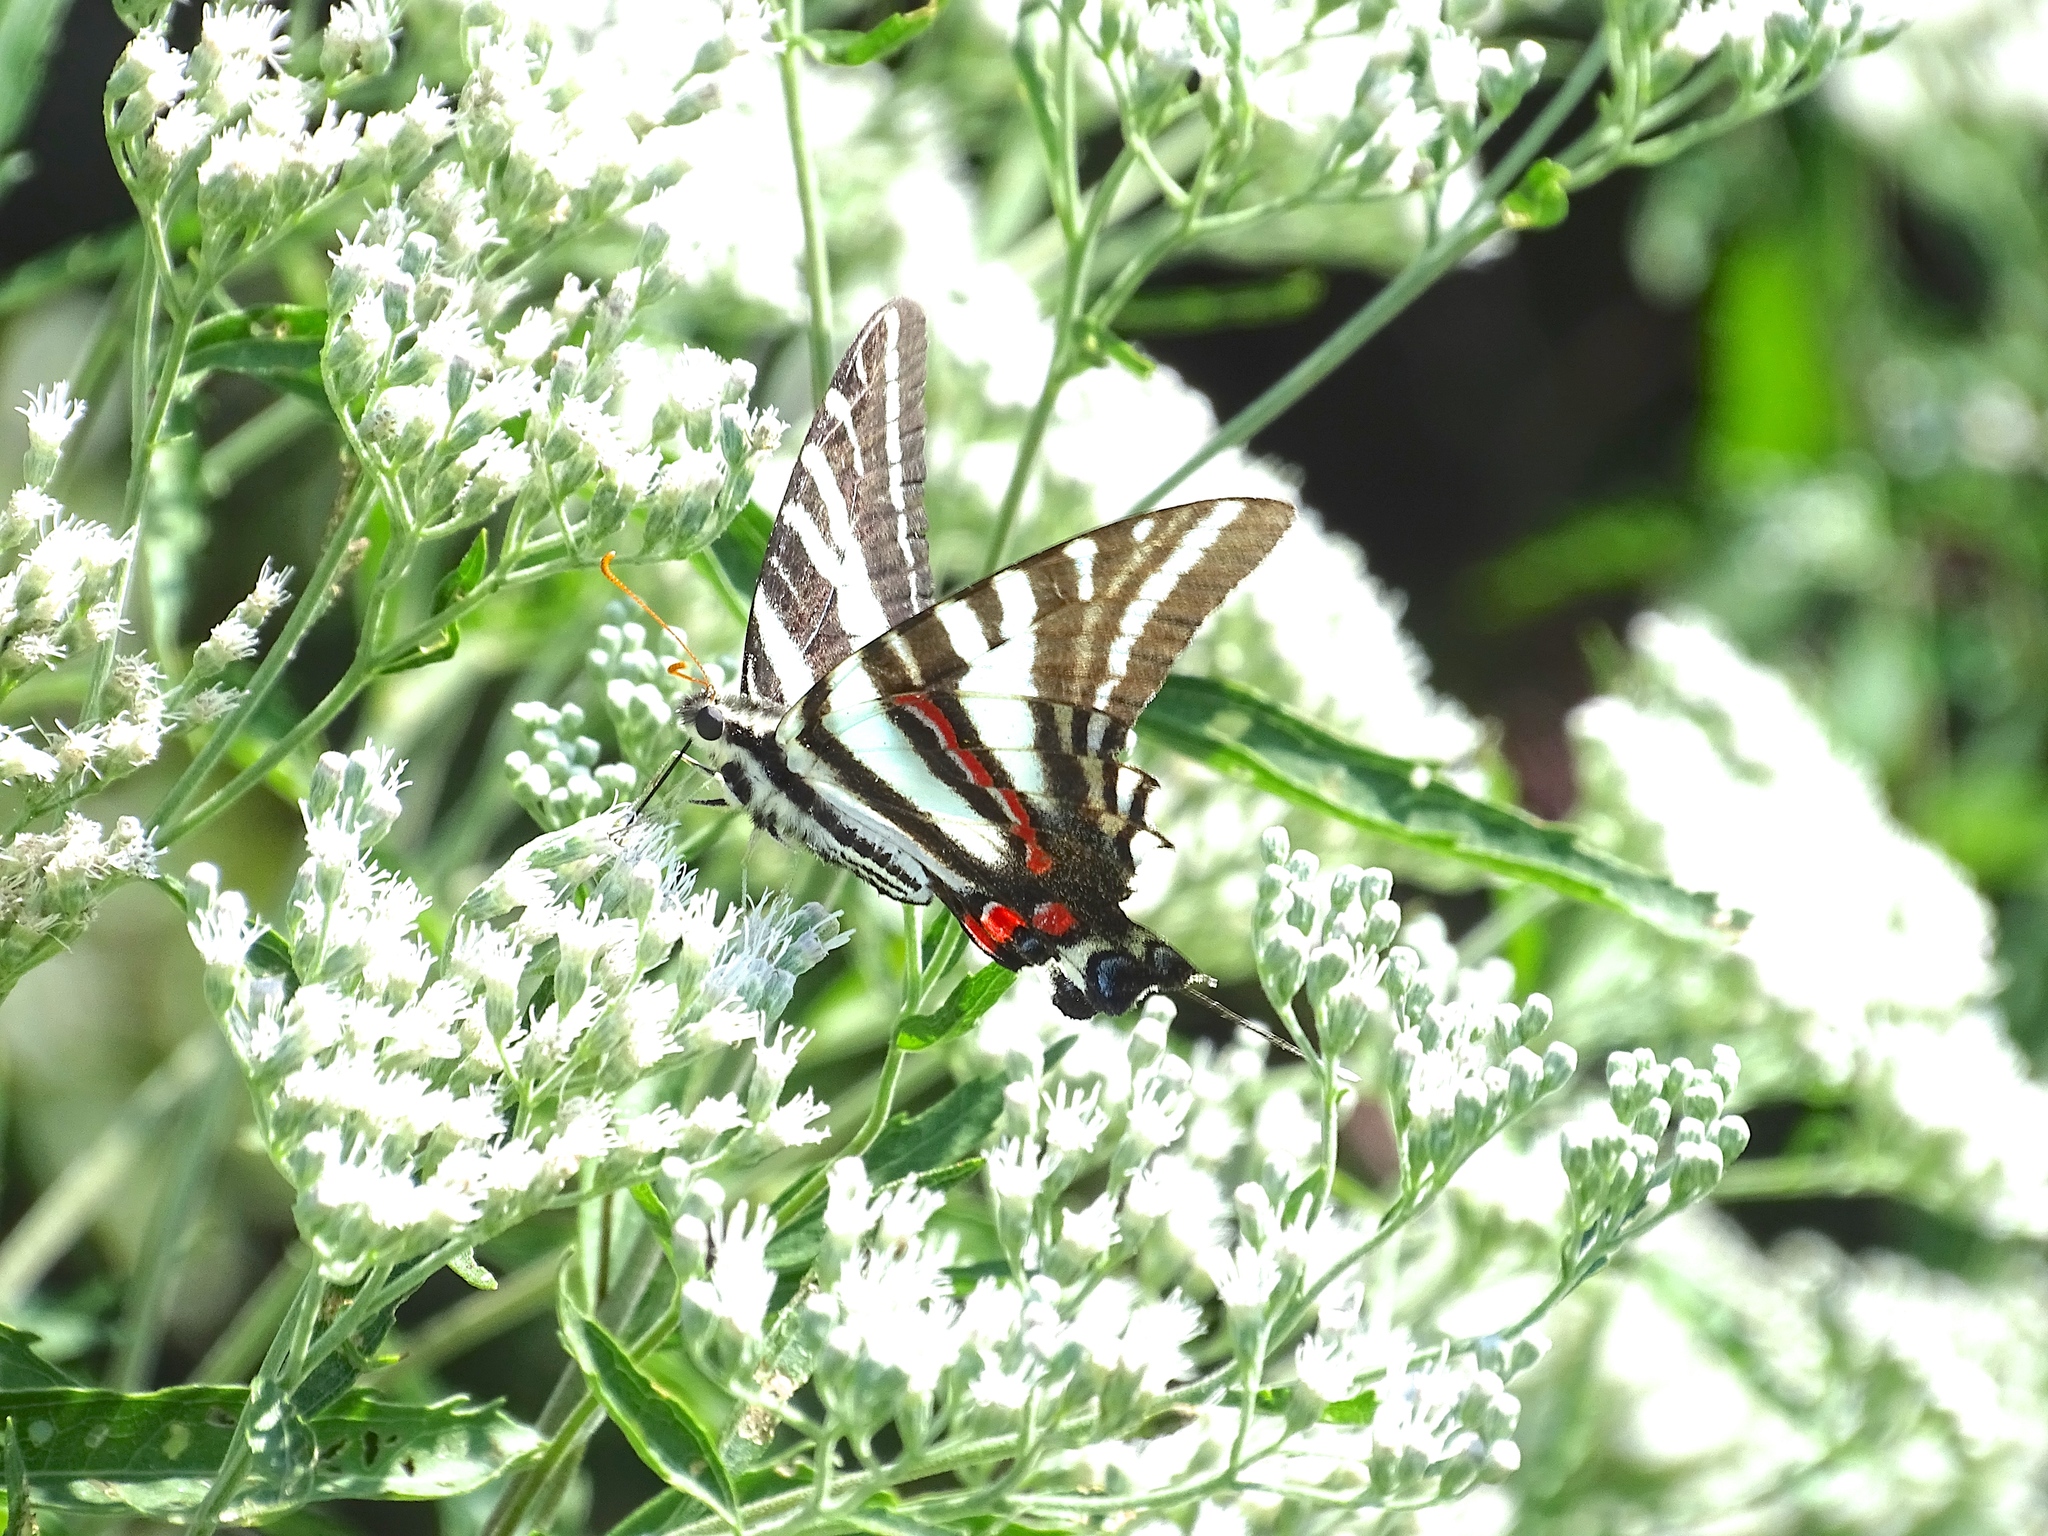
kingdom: Animalia
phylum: Arthropoda
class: Insecta
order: Lepidoptera
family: Papilionidae
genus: Protographium
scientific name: Protographium marcellus
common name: Zebra swallowtail
